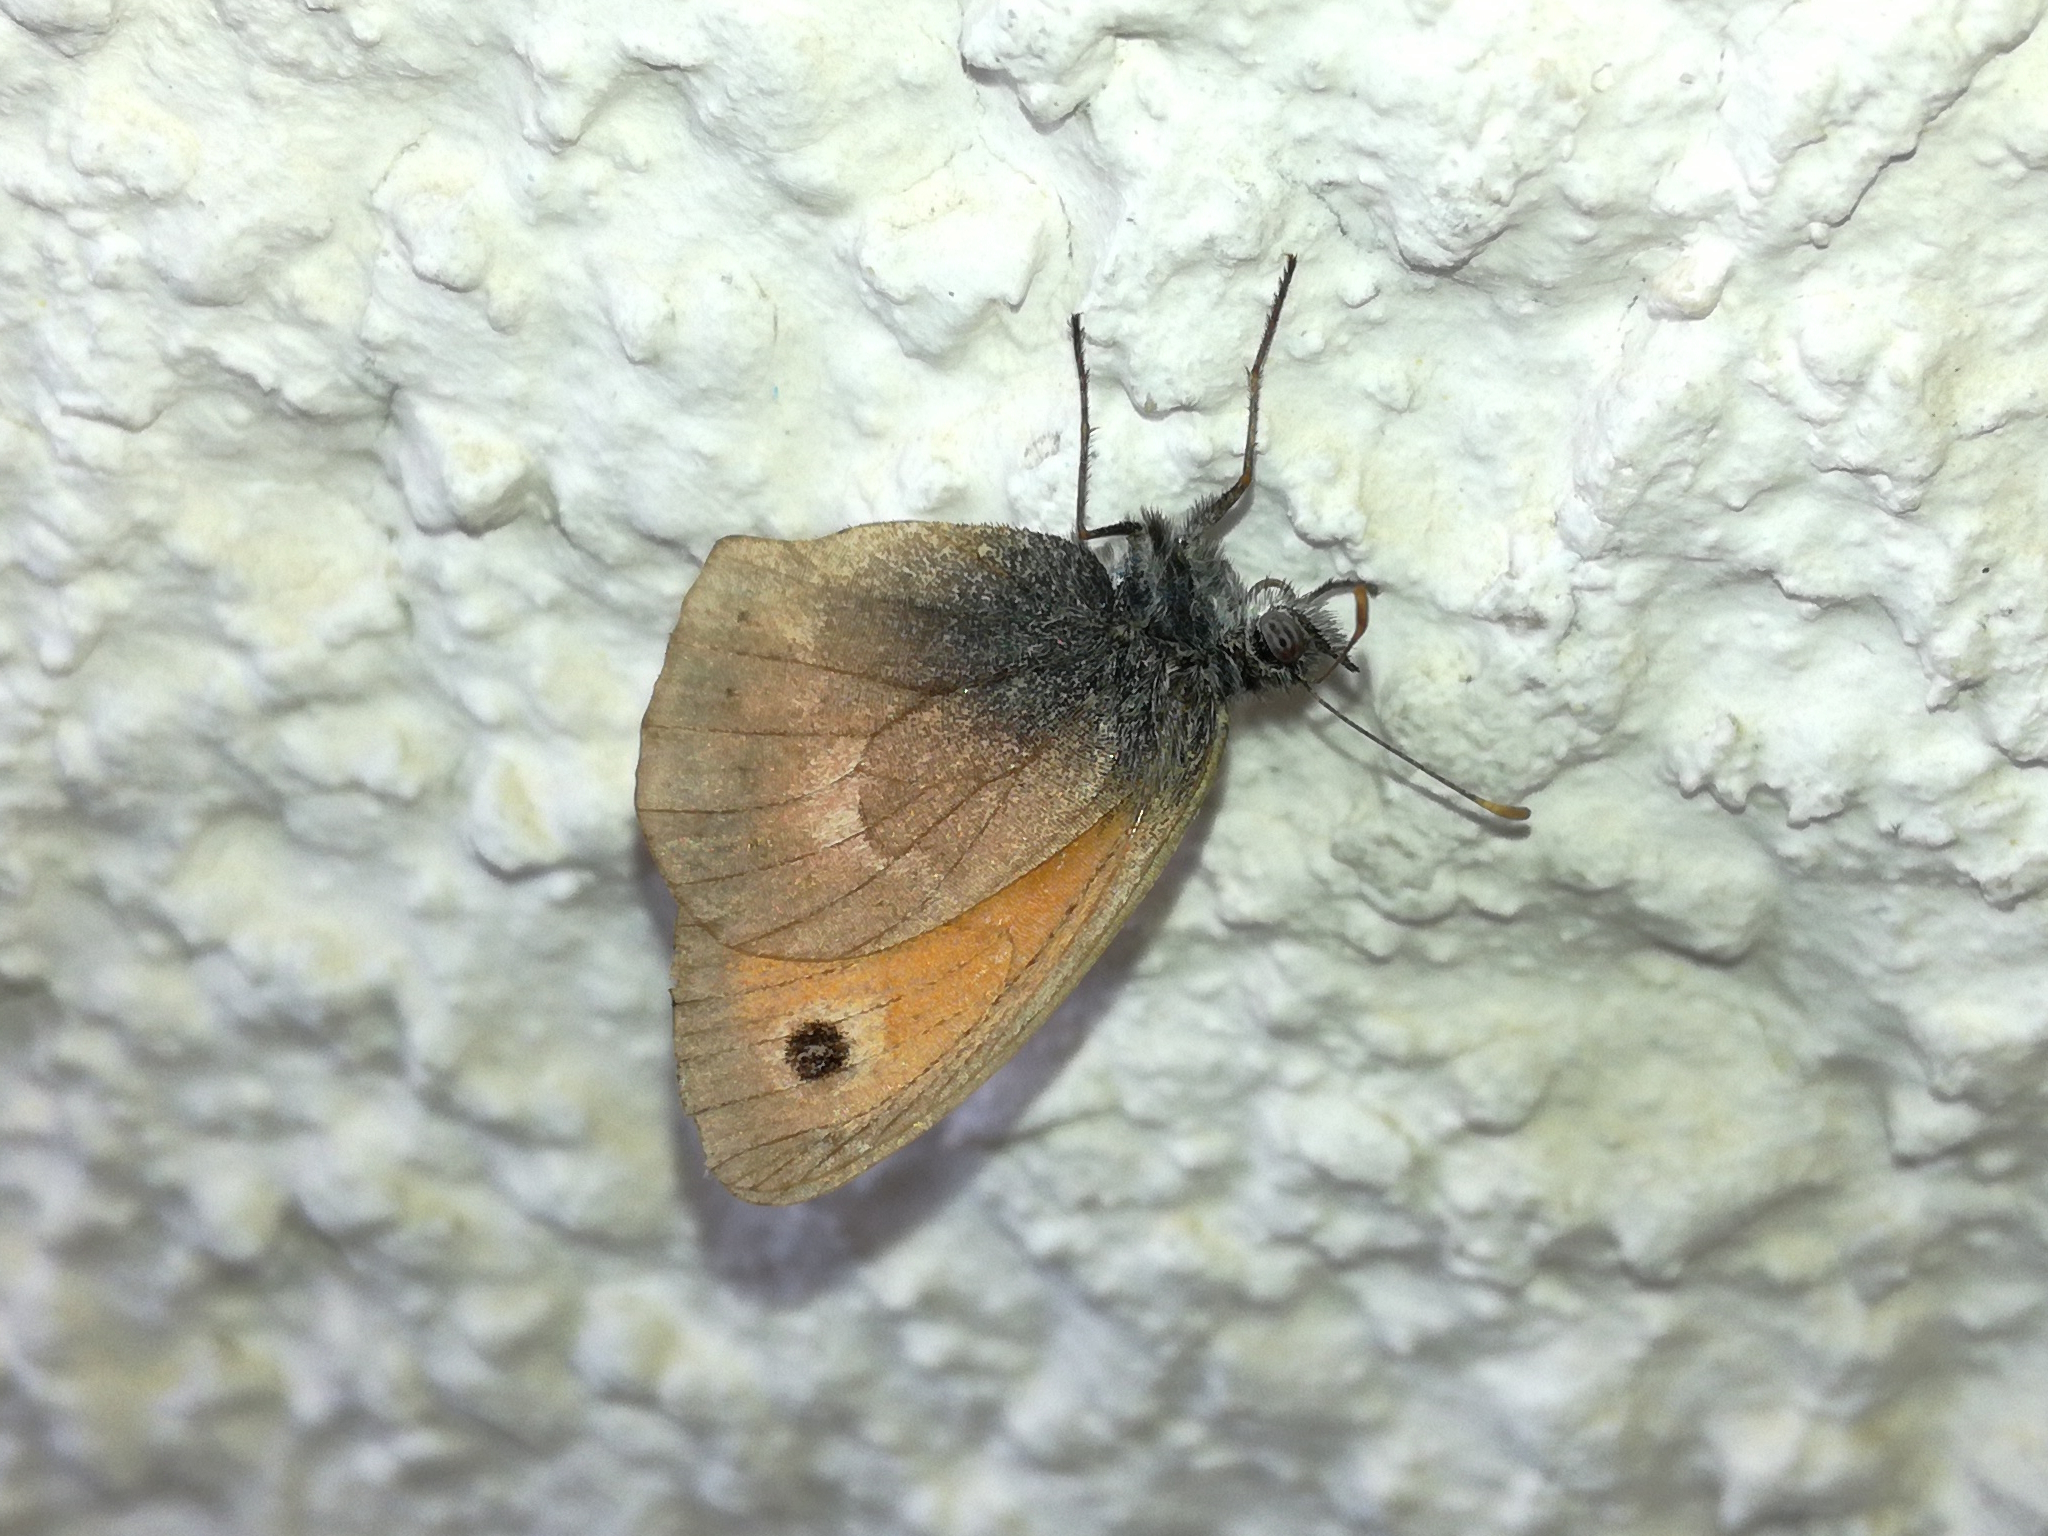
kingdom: Animalia
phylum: Arthropoda
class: Insecta
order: Lepidoptera
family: Nymphalidae
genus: Coenonympha
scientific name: Coenonympha pamphilus
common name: Small heath
